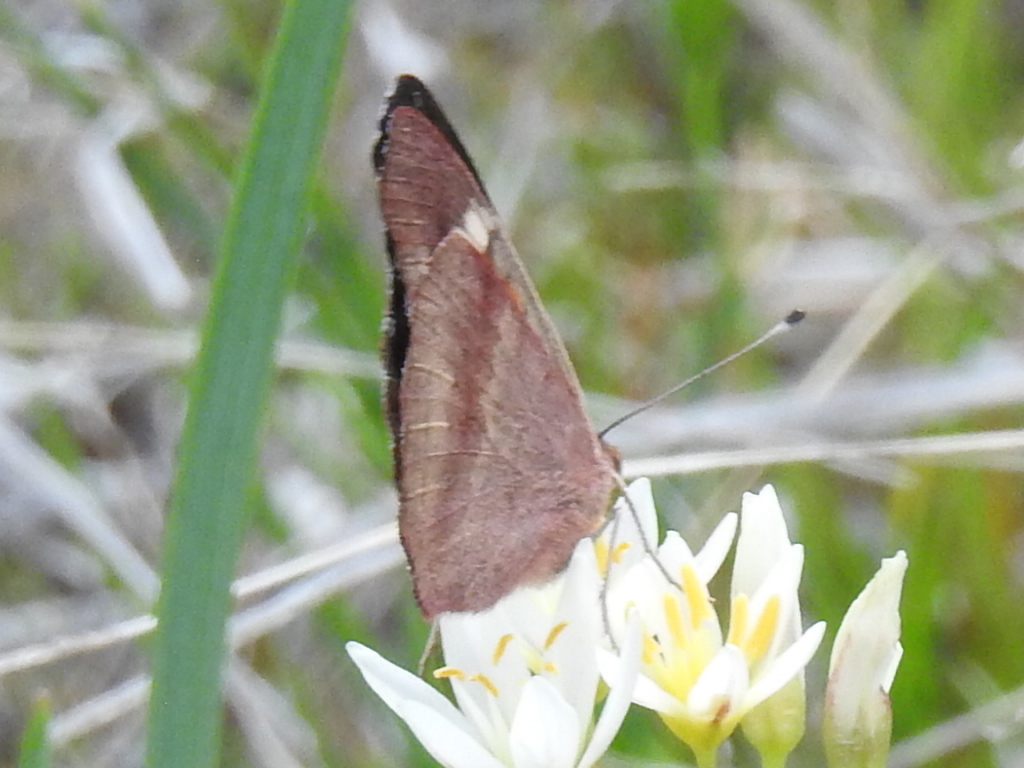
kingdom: Animalia
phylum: Arthropoda
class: Insecta
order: Lepidoptera
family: Nymphalidae
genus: Junonia
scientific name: Junonia coenia
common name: Common buckeye
